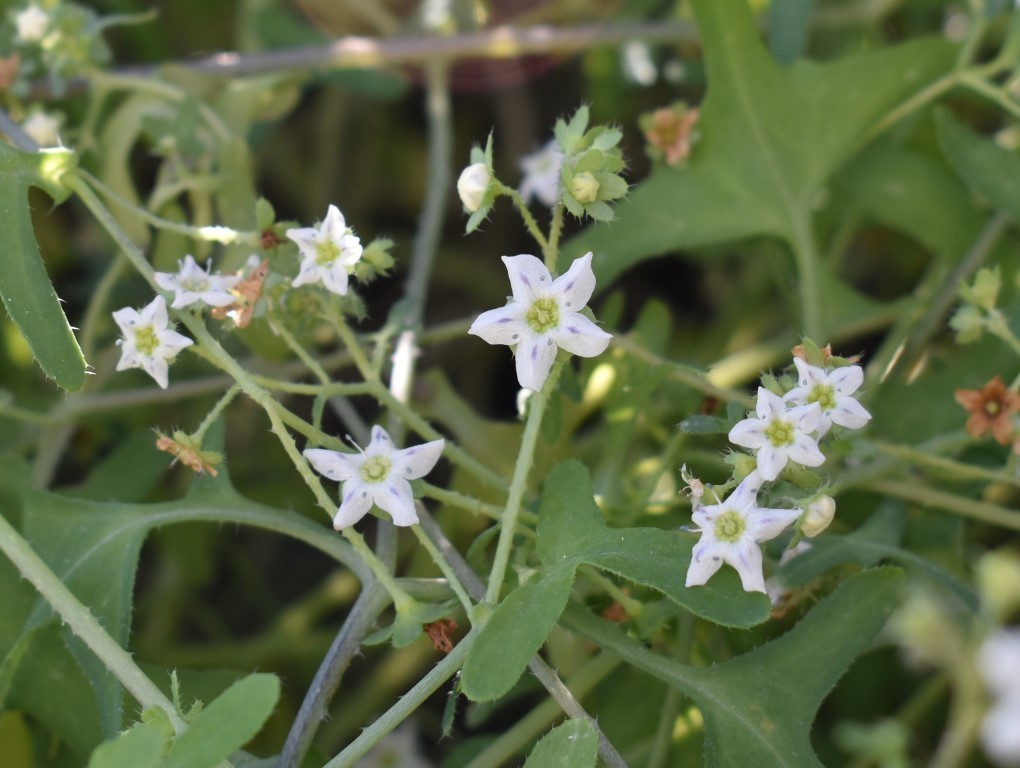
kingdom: Plantae
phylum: Tracheophyta
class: Magnoliopsida
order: Boraginales
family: Hydrophyllaceae
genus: Pholistoma
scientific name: Pholistoma membranaceum
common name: White fiesta-flower
